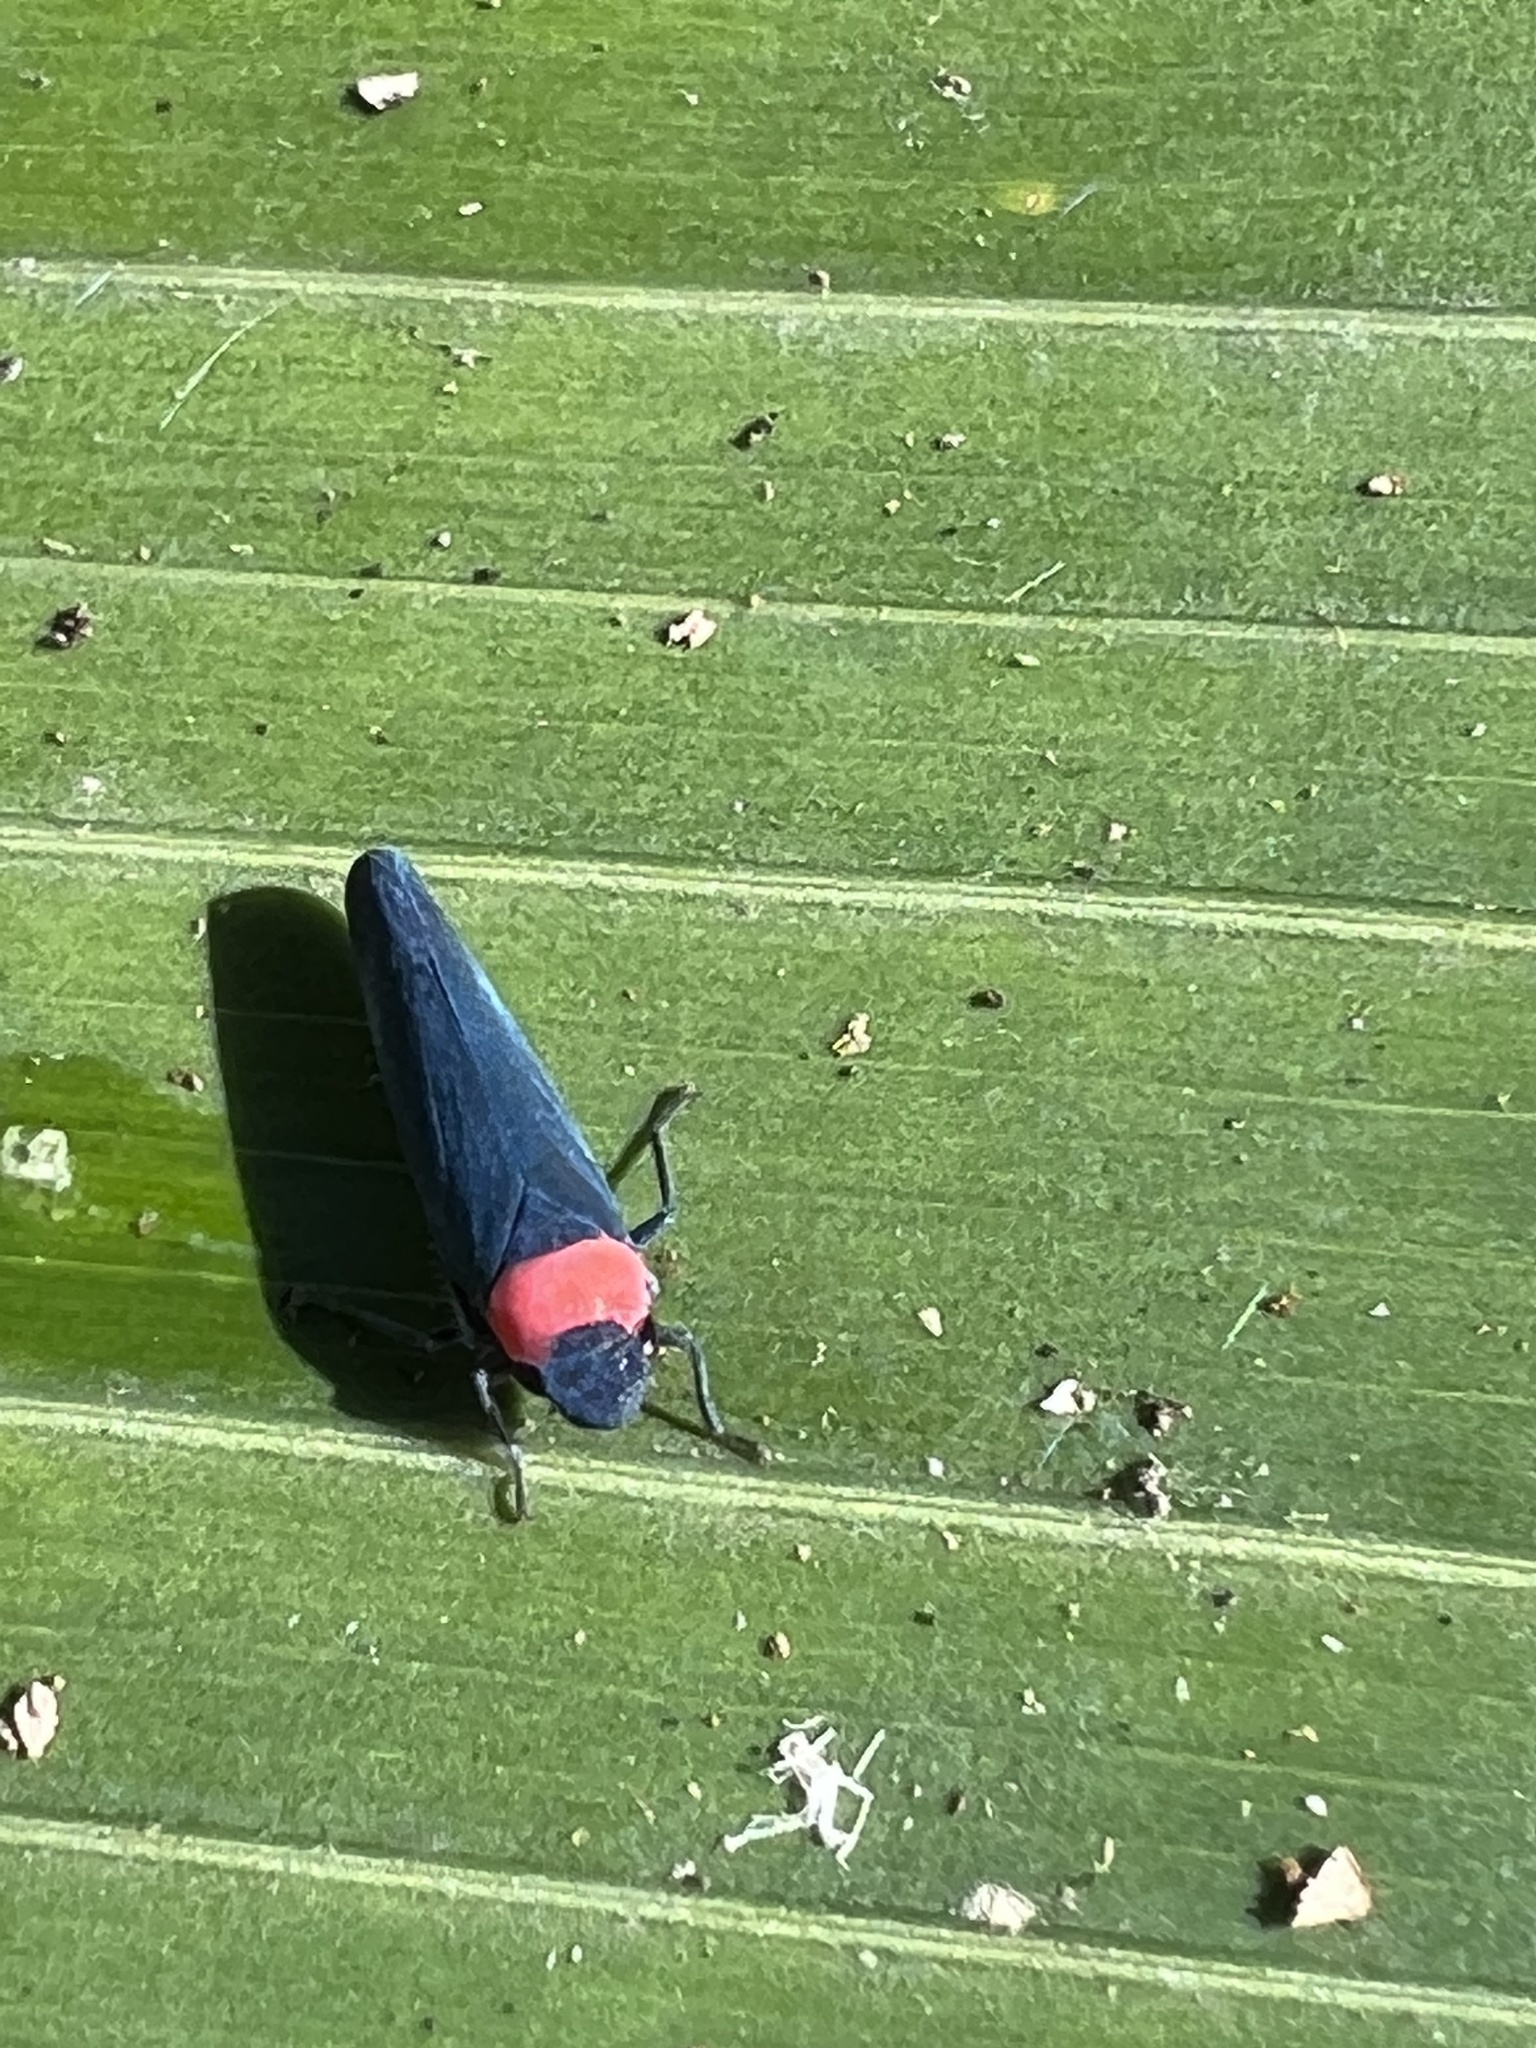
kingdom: Animalia
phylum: Arthropoda
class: Insecta
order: Hemiptera
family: Cicadellidae
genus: Barbinolla
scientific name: Barbinolla costaricensis
